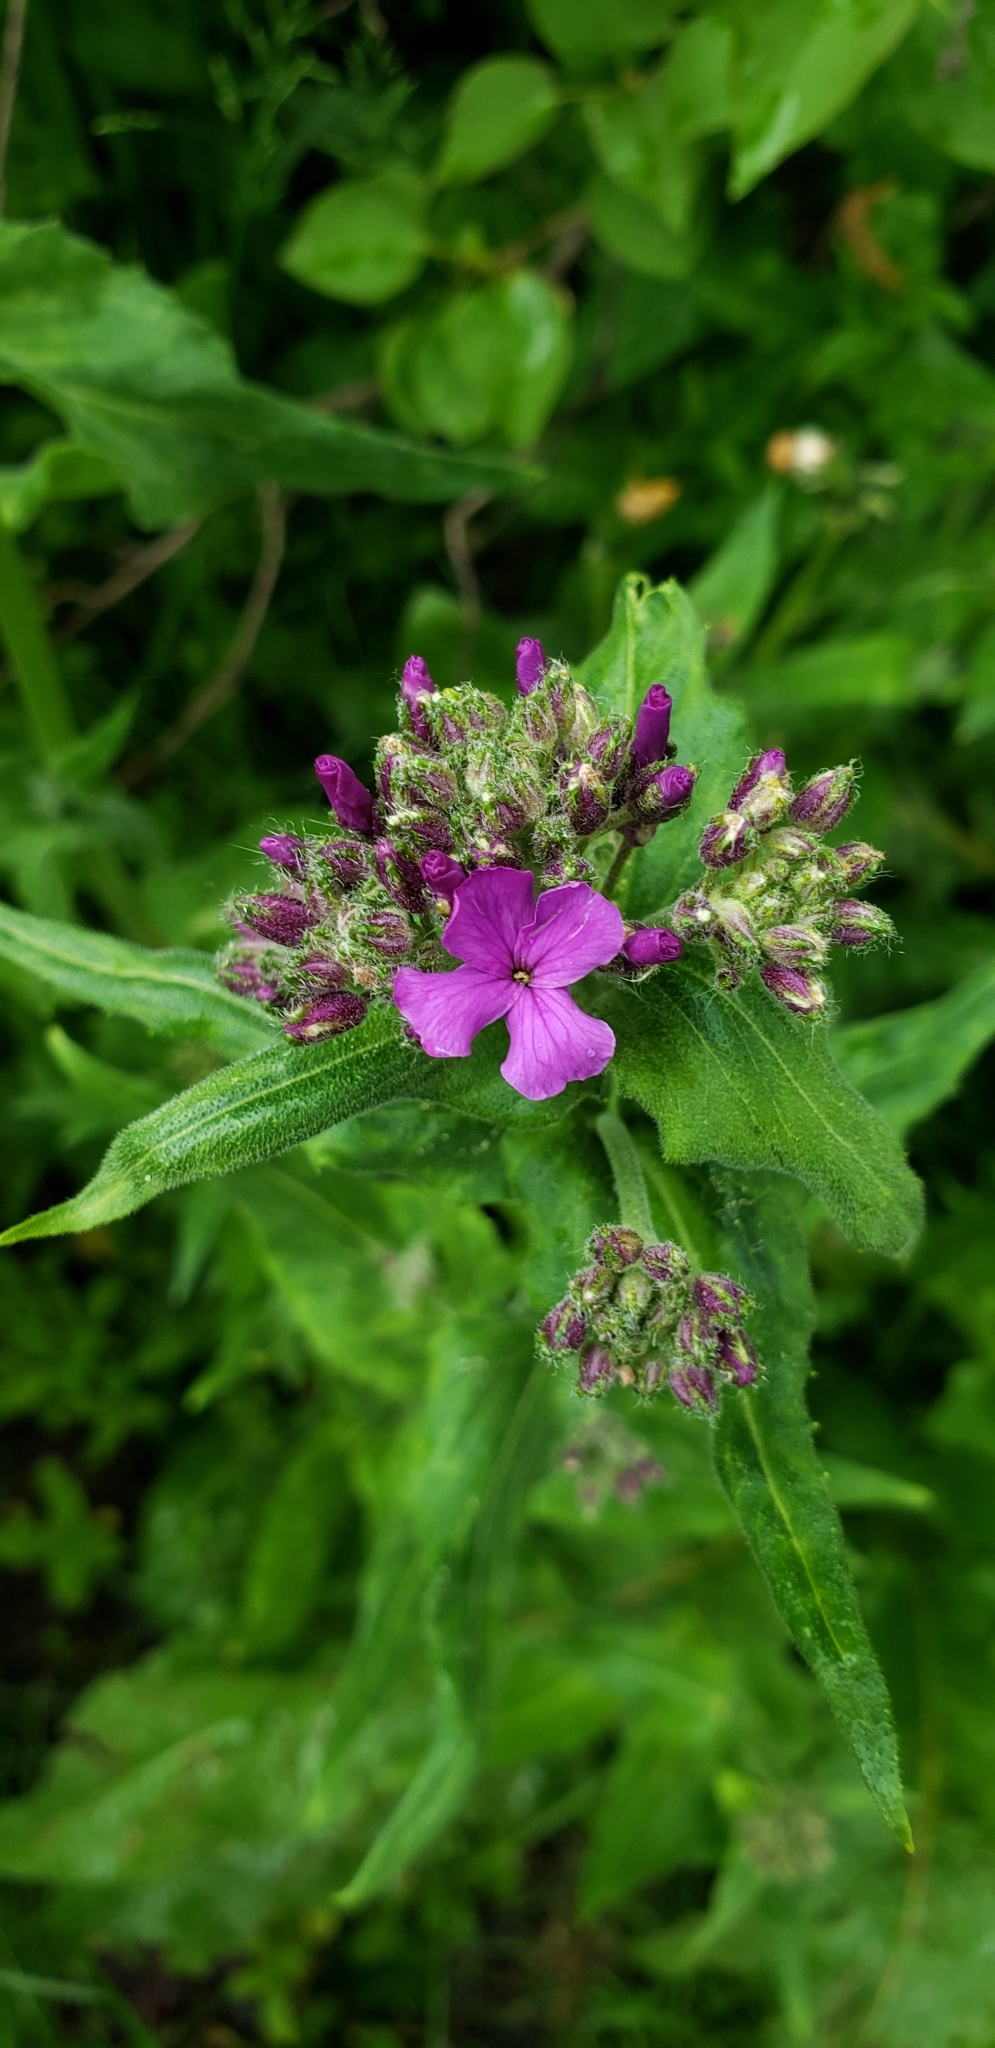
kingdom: Plantae
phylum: Tracheophyta
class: Magnoliopsida
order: Brassicales
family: Brassicaceae
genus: Hesperis
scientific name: Hesperis matronalis
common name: Dame's-violet
